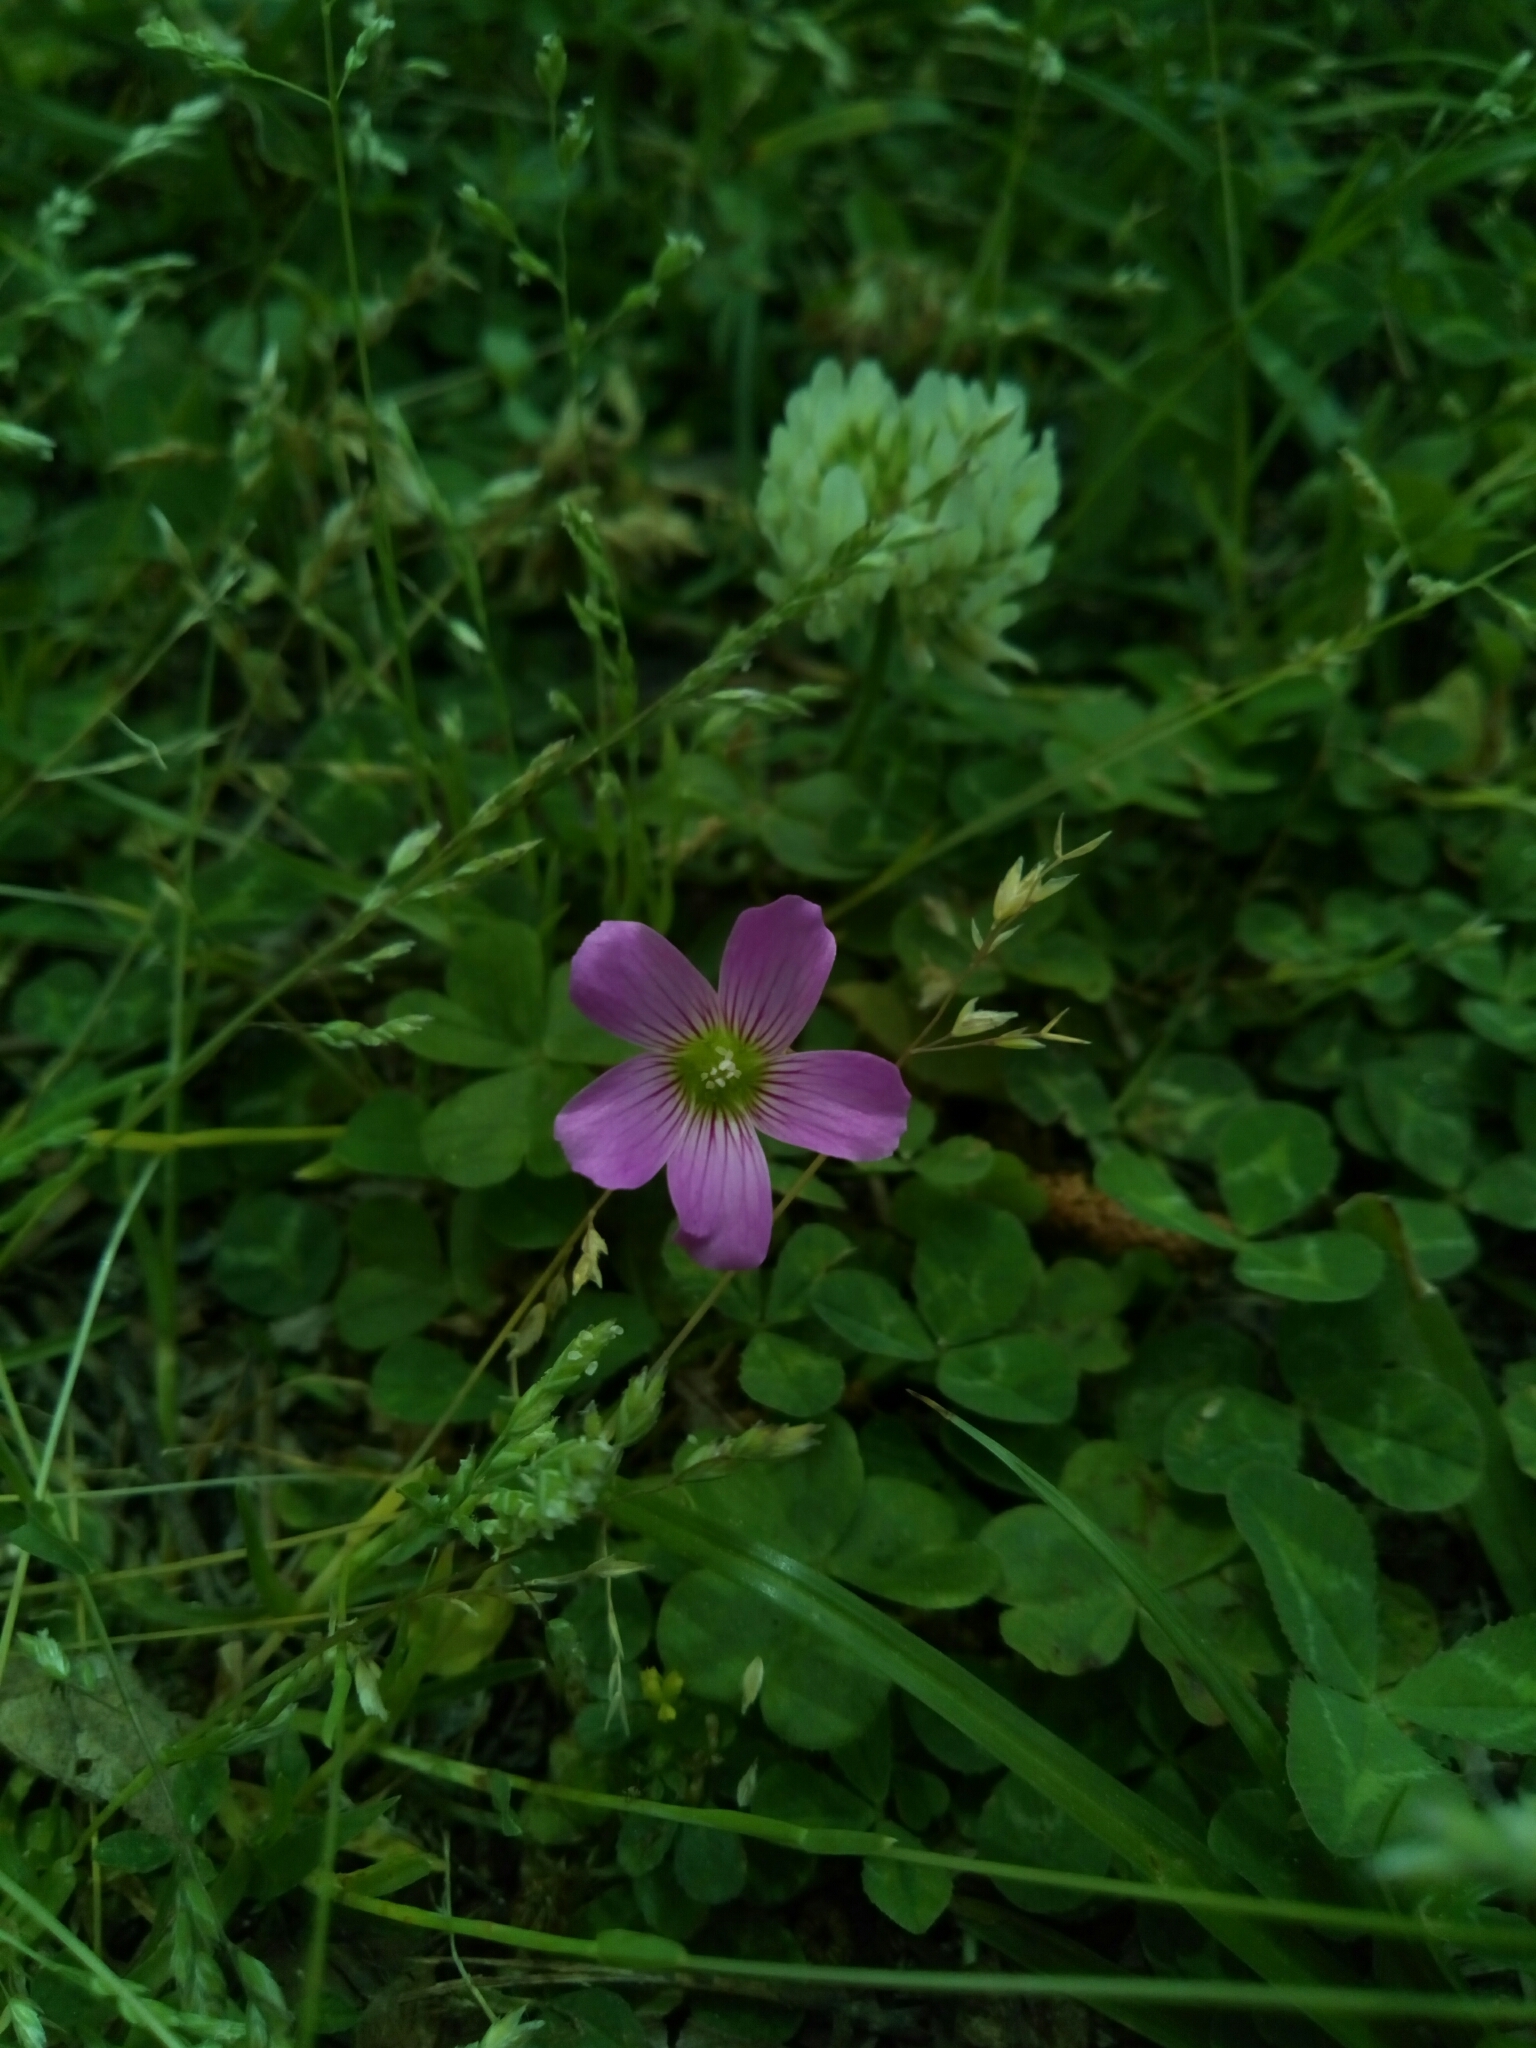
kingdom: Plantae
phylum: Tracheophyta
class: Magnoliopsida
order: Oxalidales
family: Oxalidaceae
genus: Oxalis
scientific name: Oxalis debilis
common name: Large-flowered pink-sorrel
